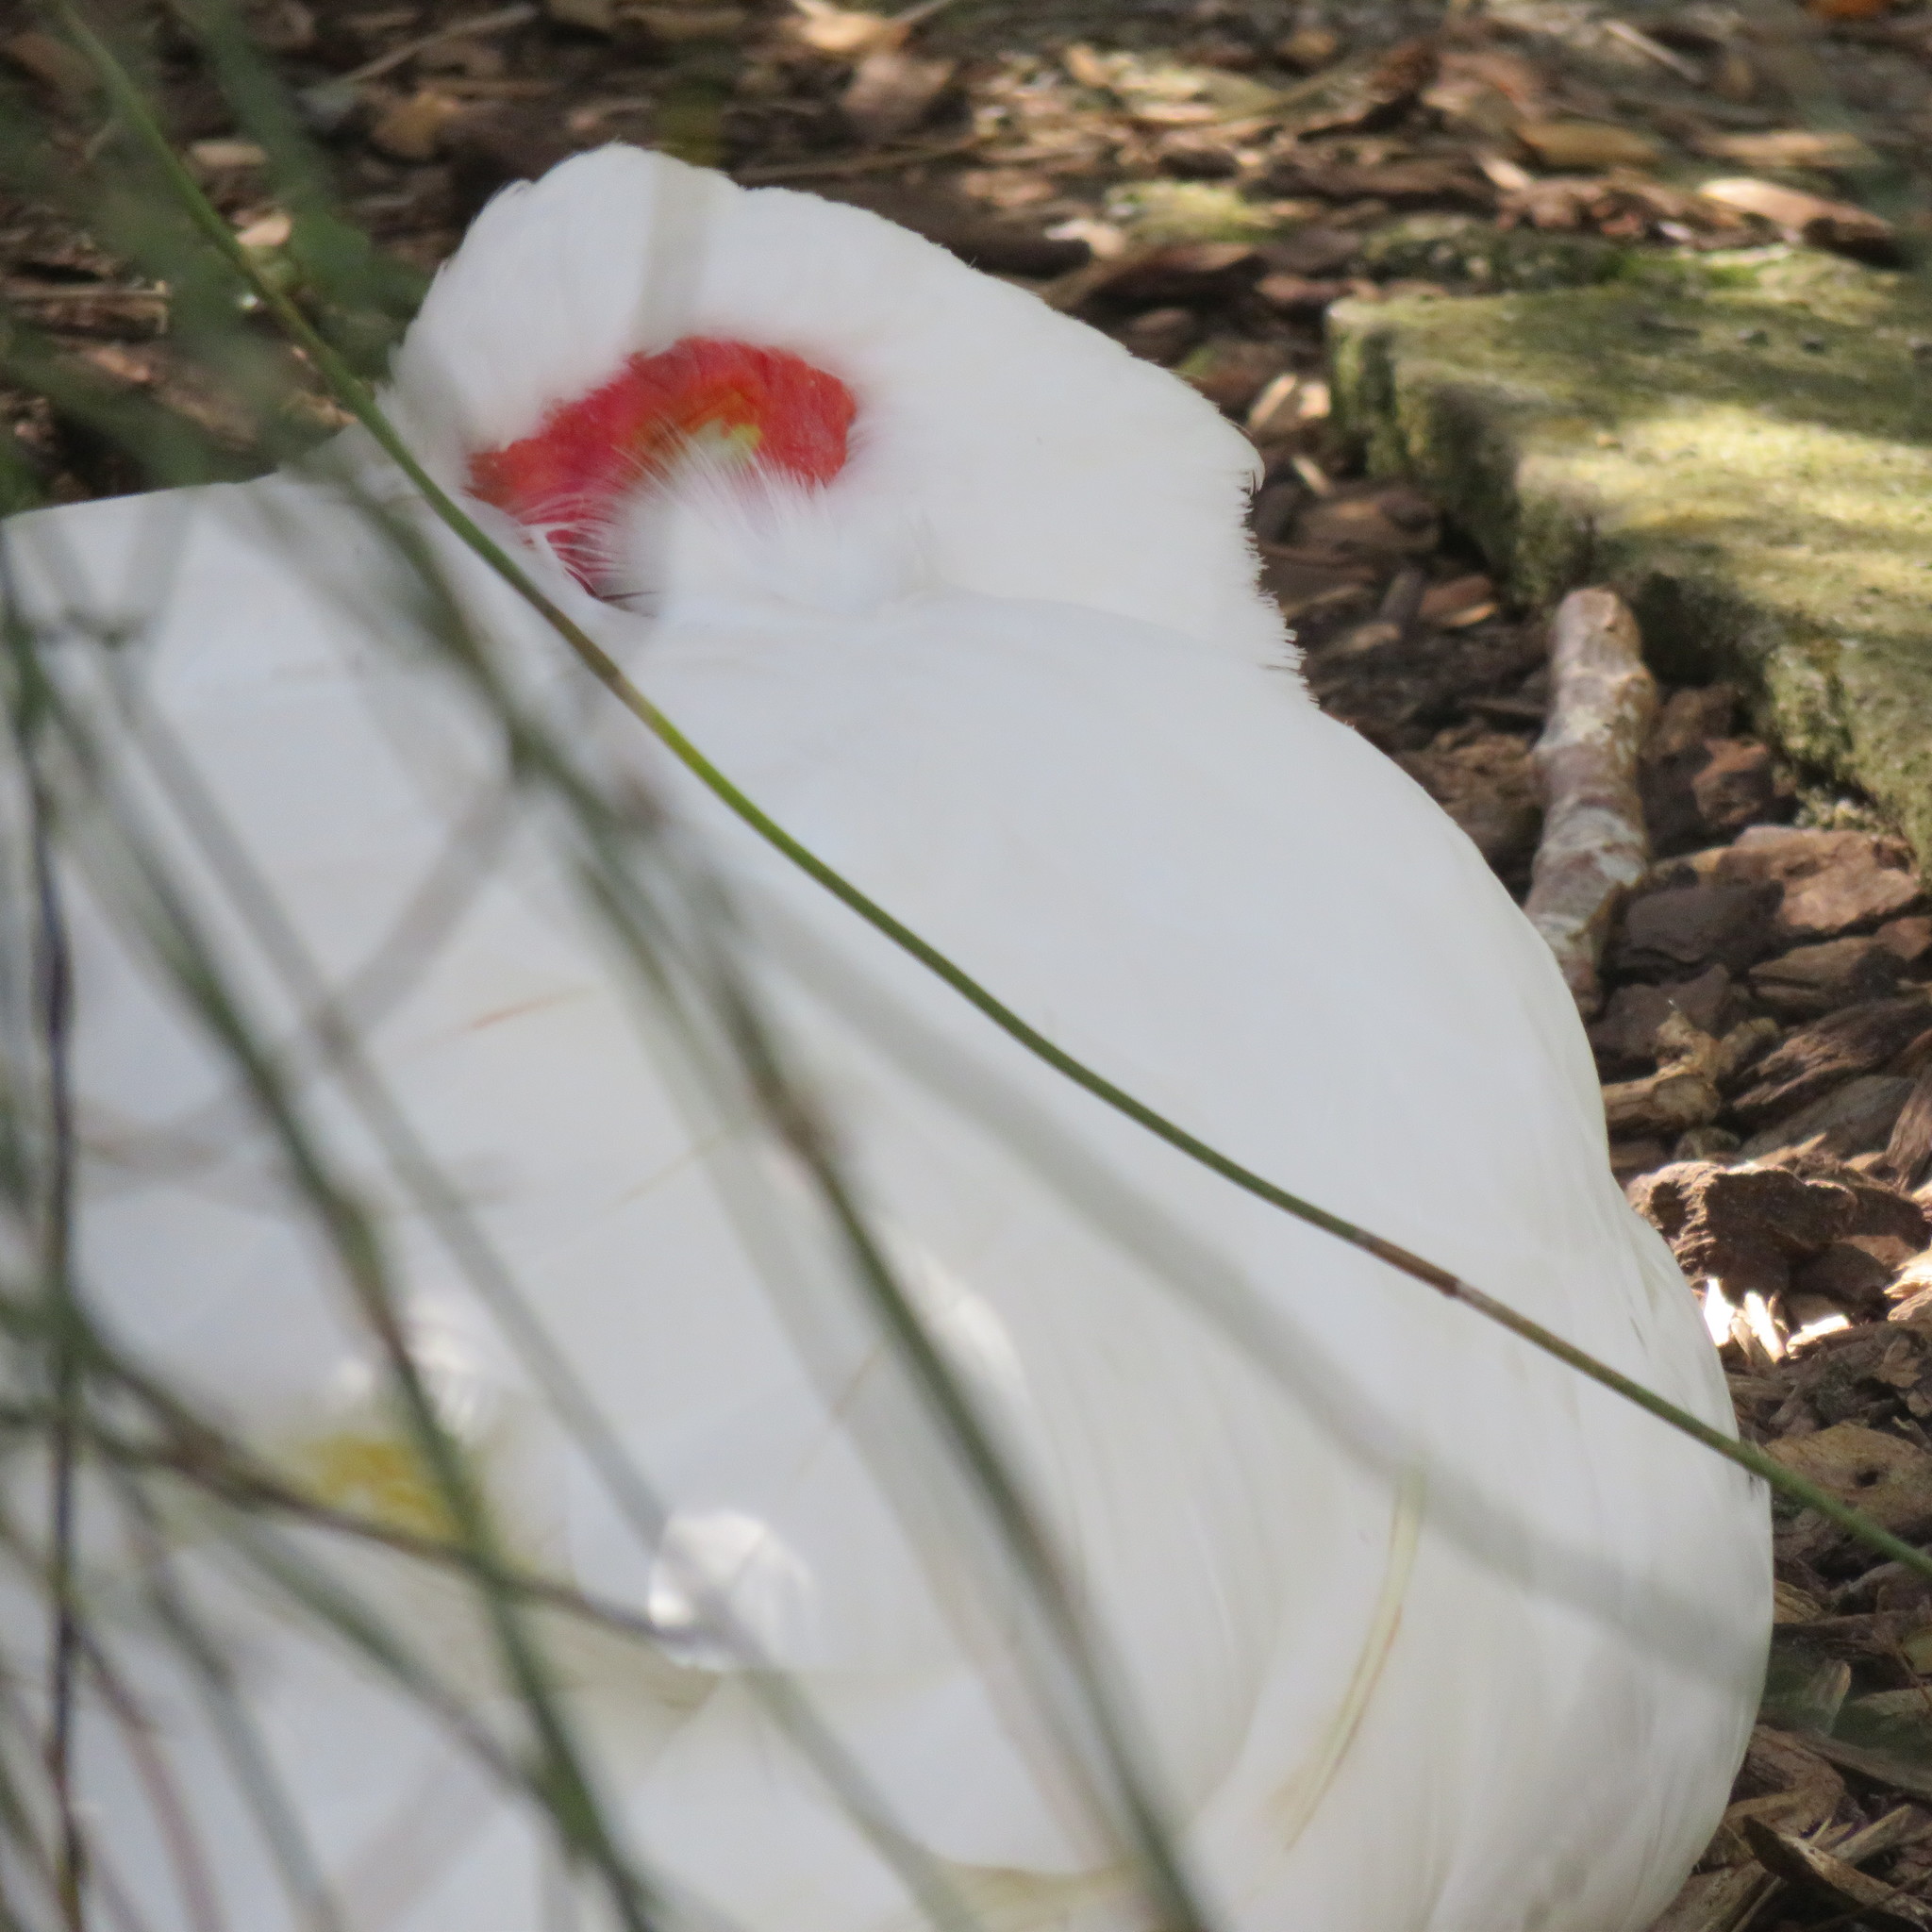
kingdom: Animalia
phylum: Chordata
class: Aves
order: Anseriformes
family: Anatidae
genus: Cairina
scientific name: Cairina moschata
